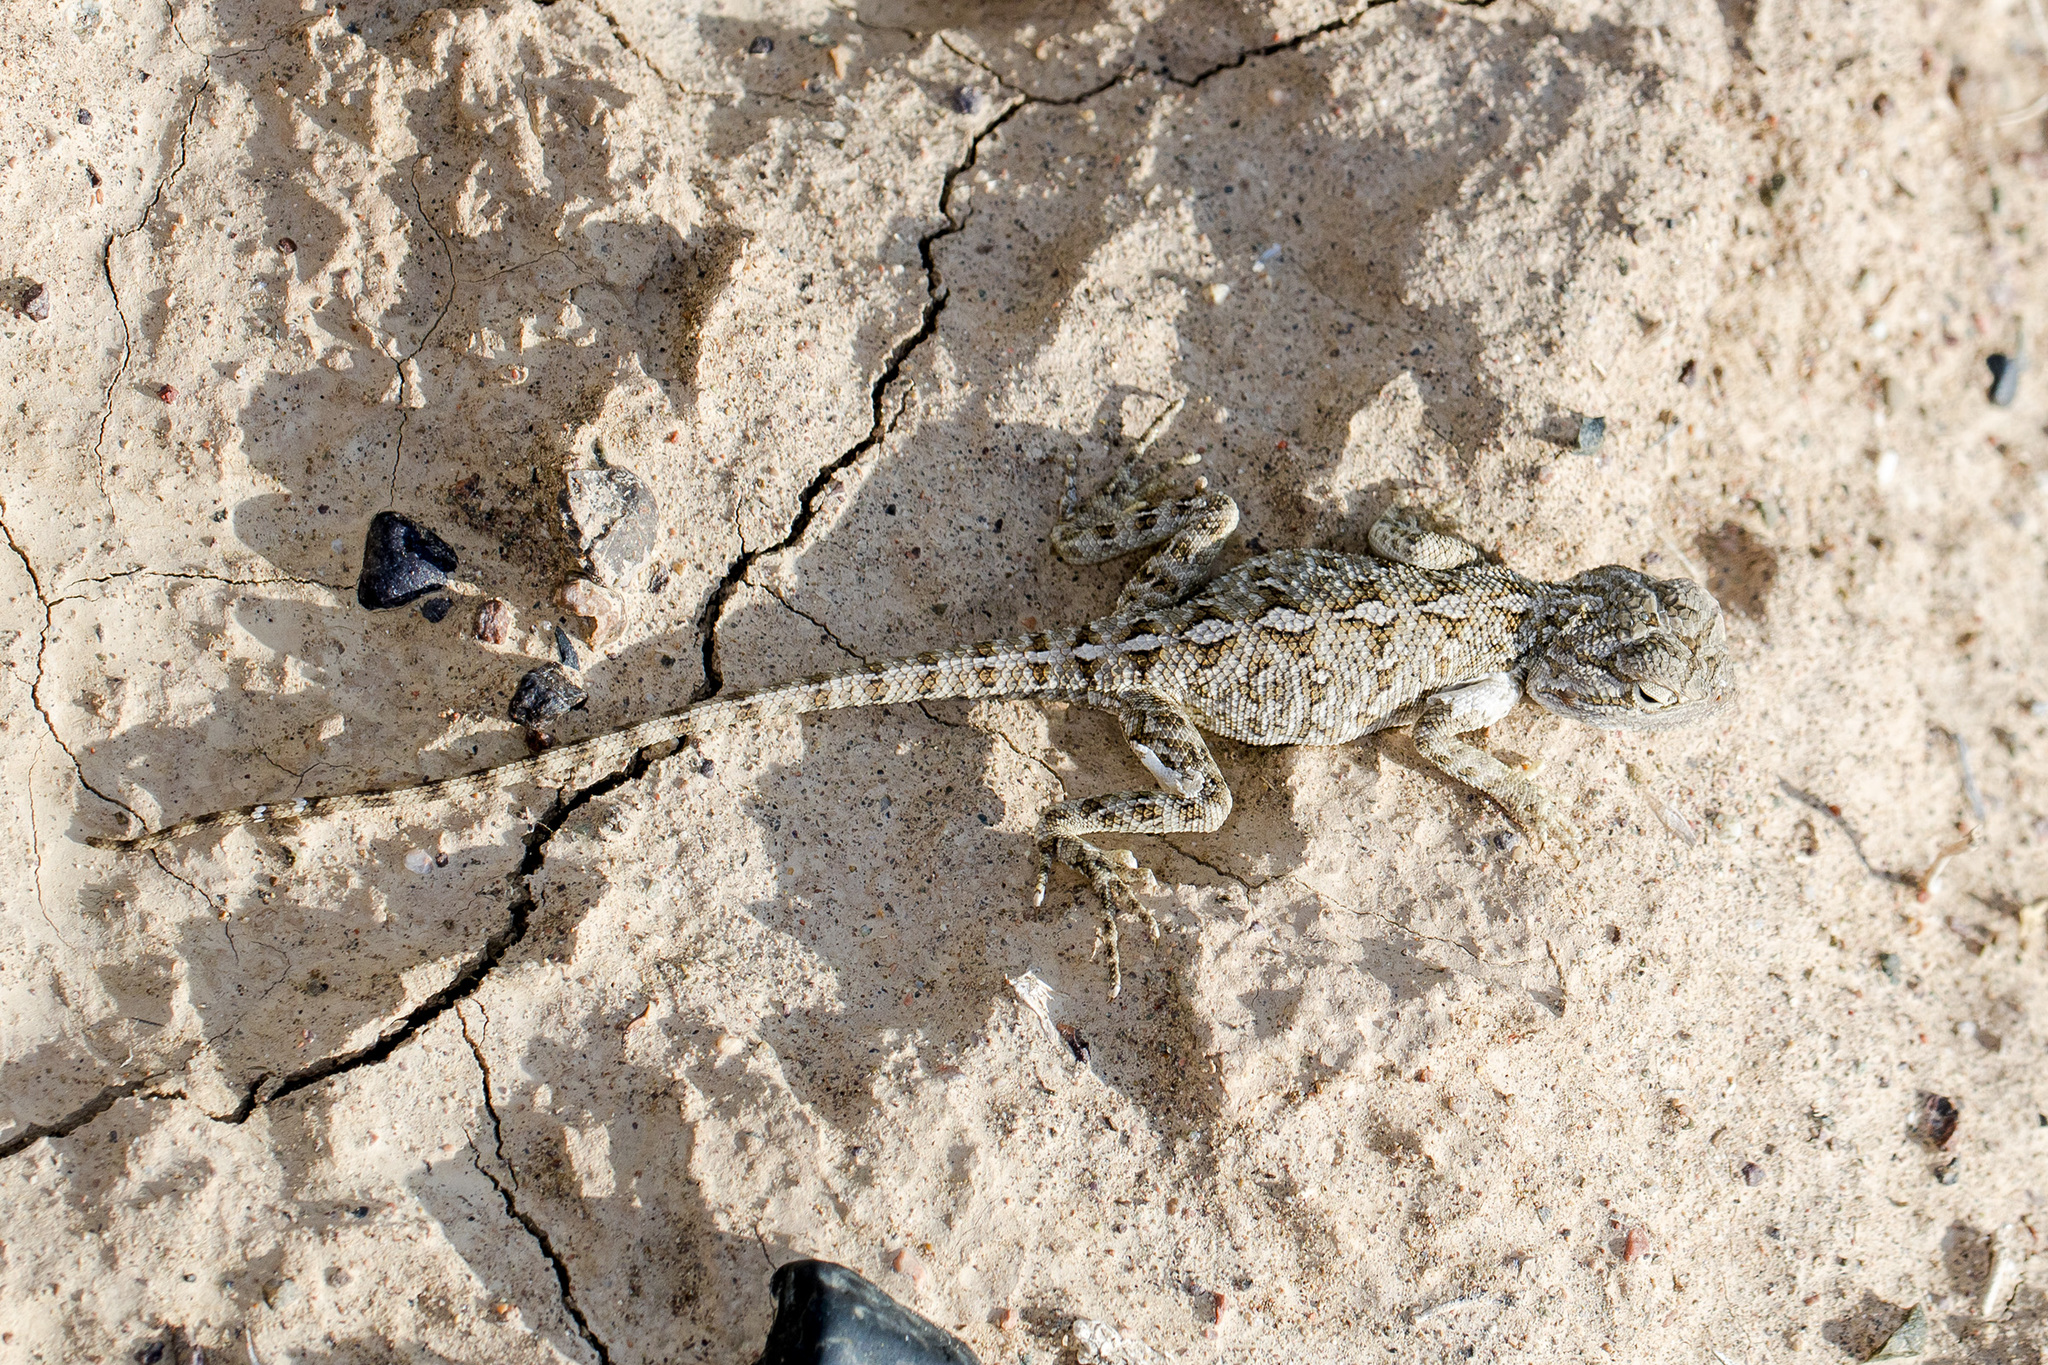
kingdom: Animalia
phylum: Chordata
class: Squamata
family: Agamidae
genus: Trapelus
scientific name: Trapelus sanguinolentus
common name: Steppe agama
